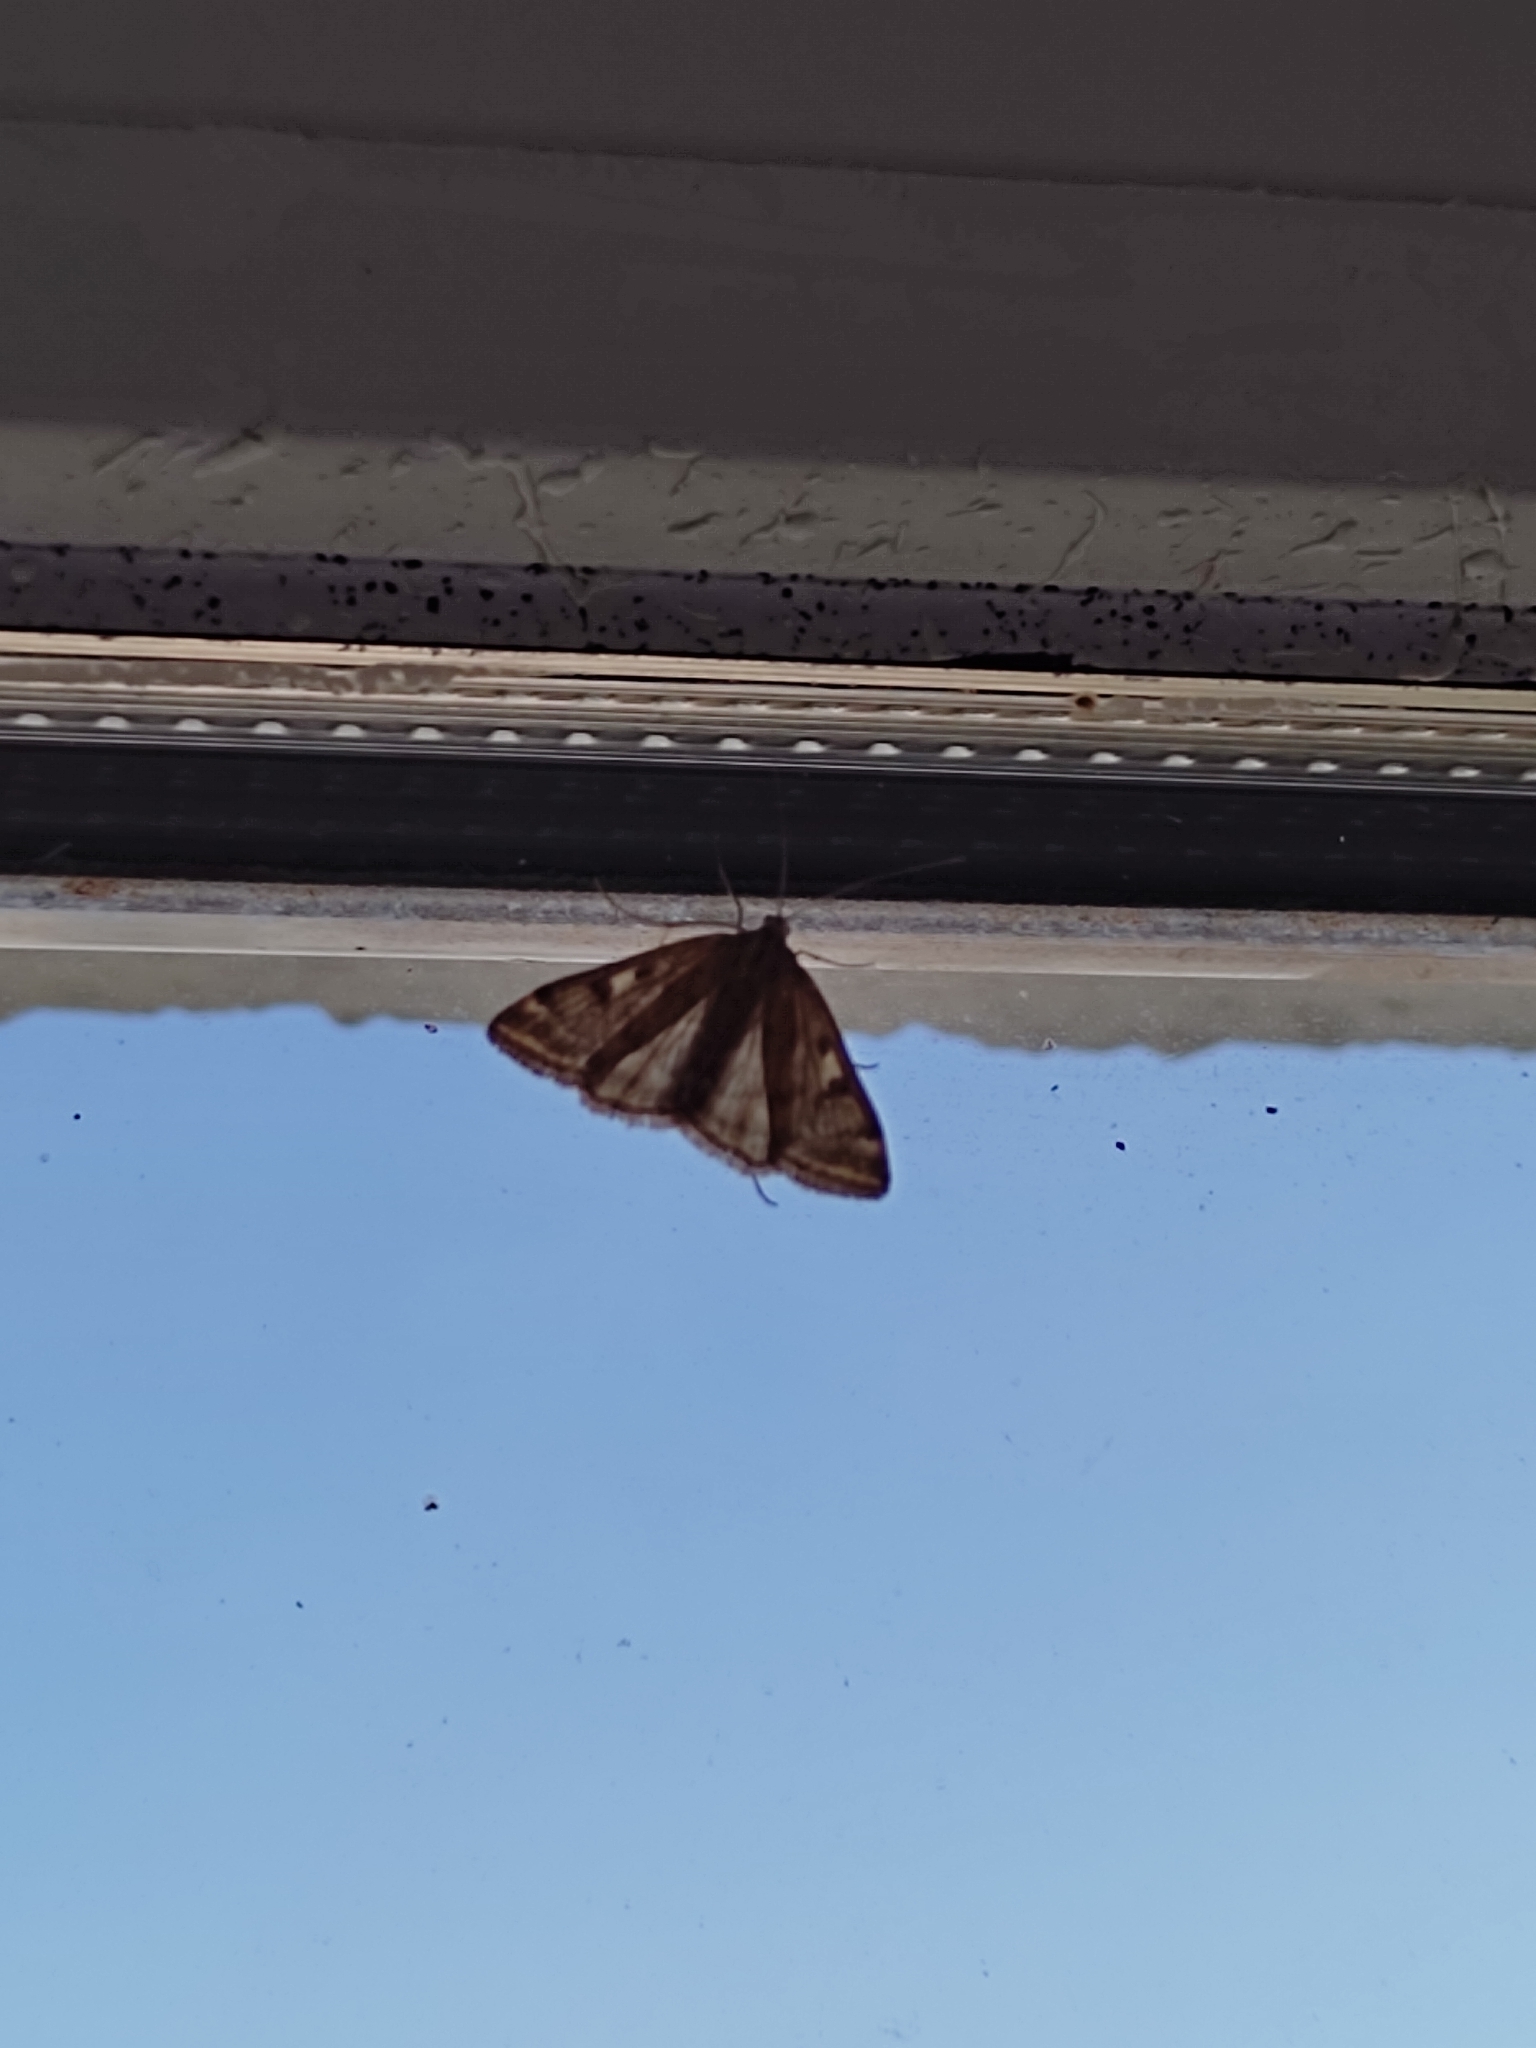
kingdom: Animalia
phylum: Arthropoda
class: Insecta
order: Lepidoptera
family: Crambidae
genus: Loxostege
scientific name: Loxostege sticticalis
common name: Crambid moth
